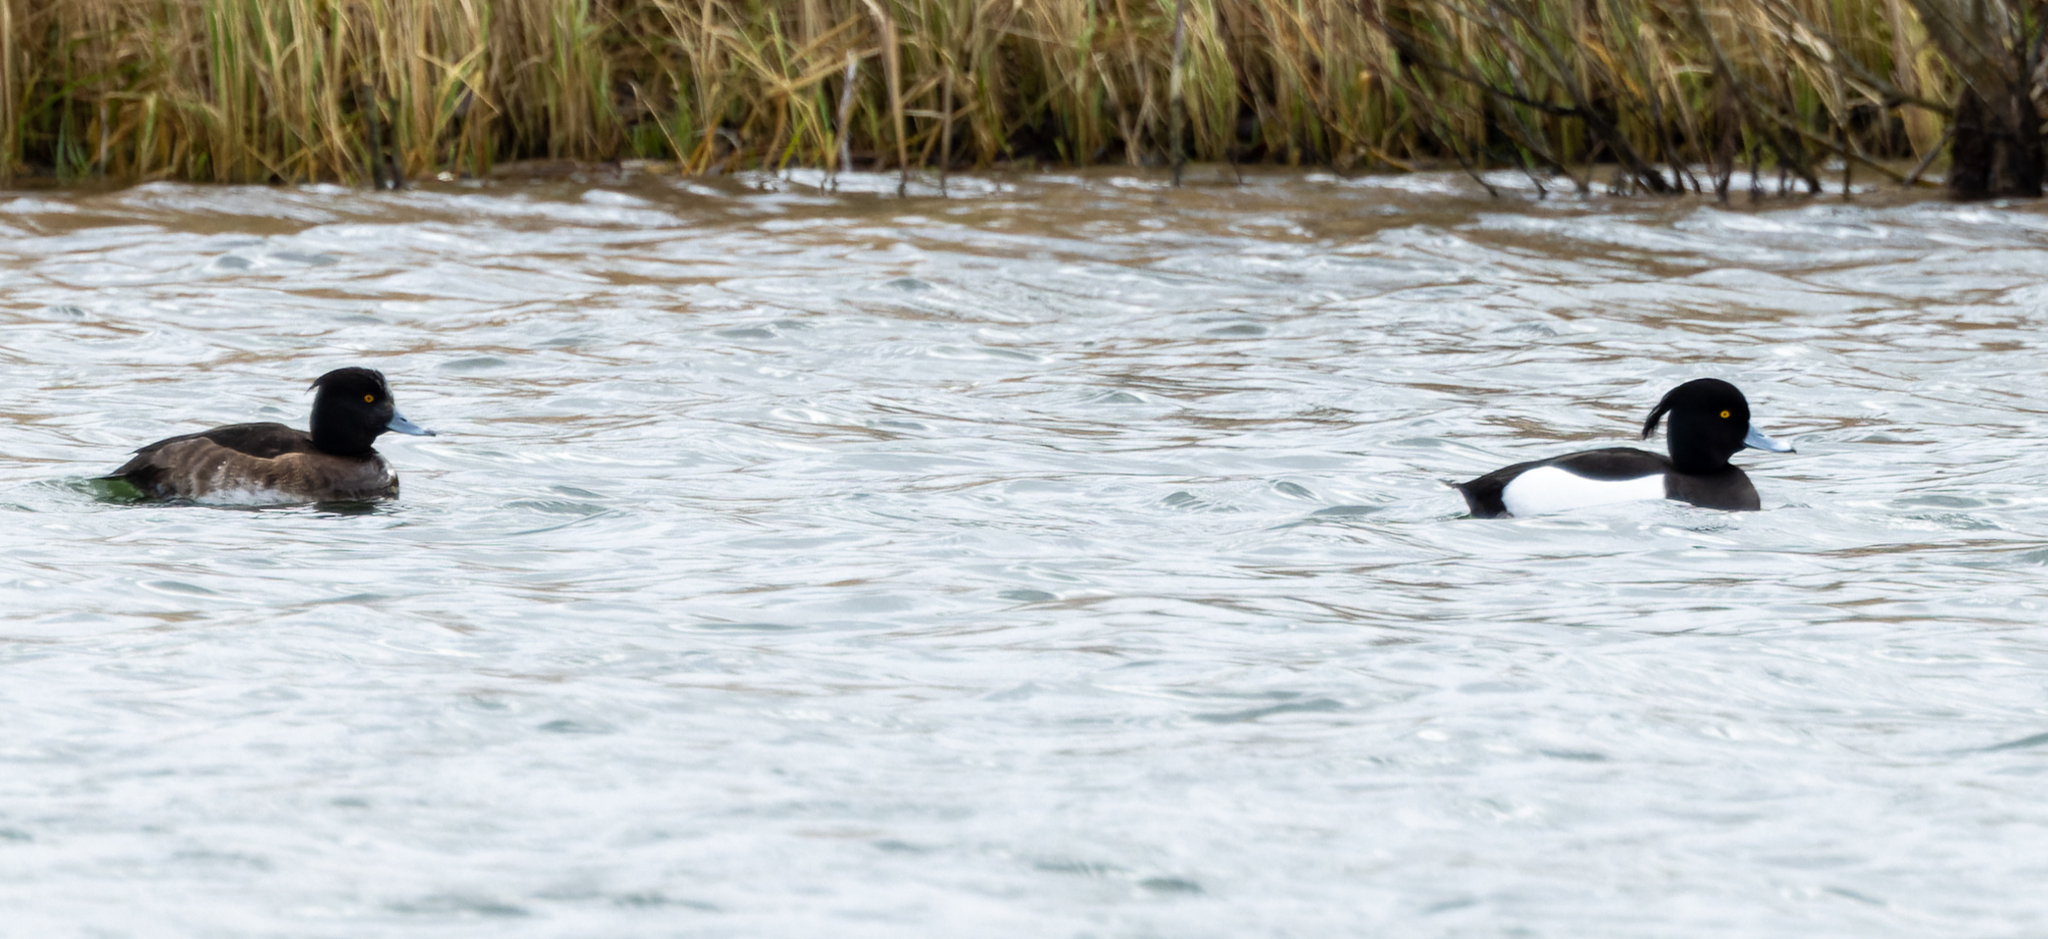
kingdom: Animalia
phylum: Chordata
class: Aves
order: Anseriformes
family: Anatidae
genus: Aythya
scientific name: Aythya fuligula
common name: Tufted duck
